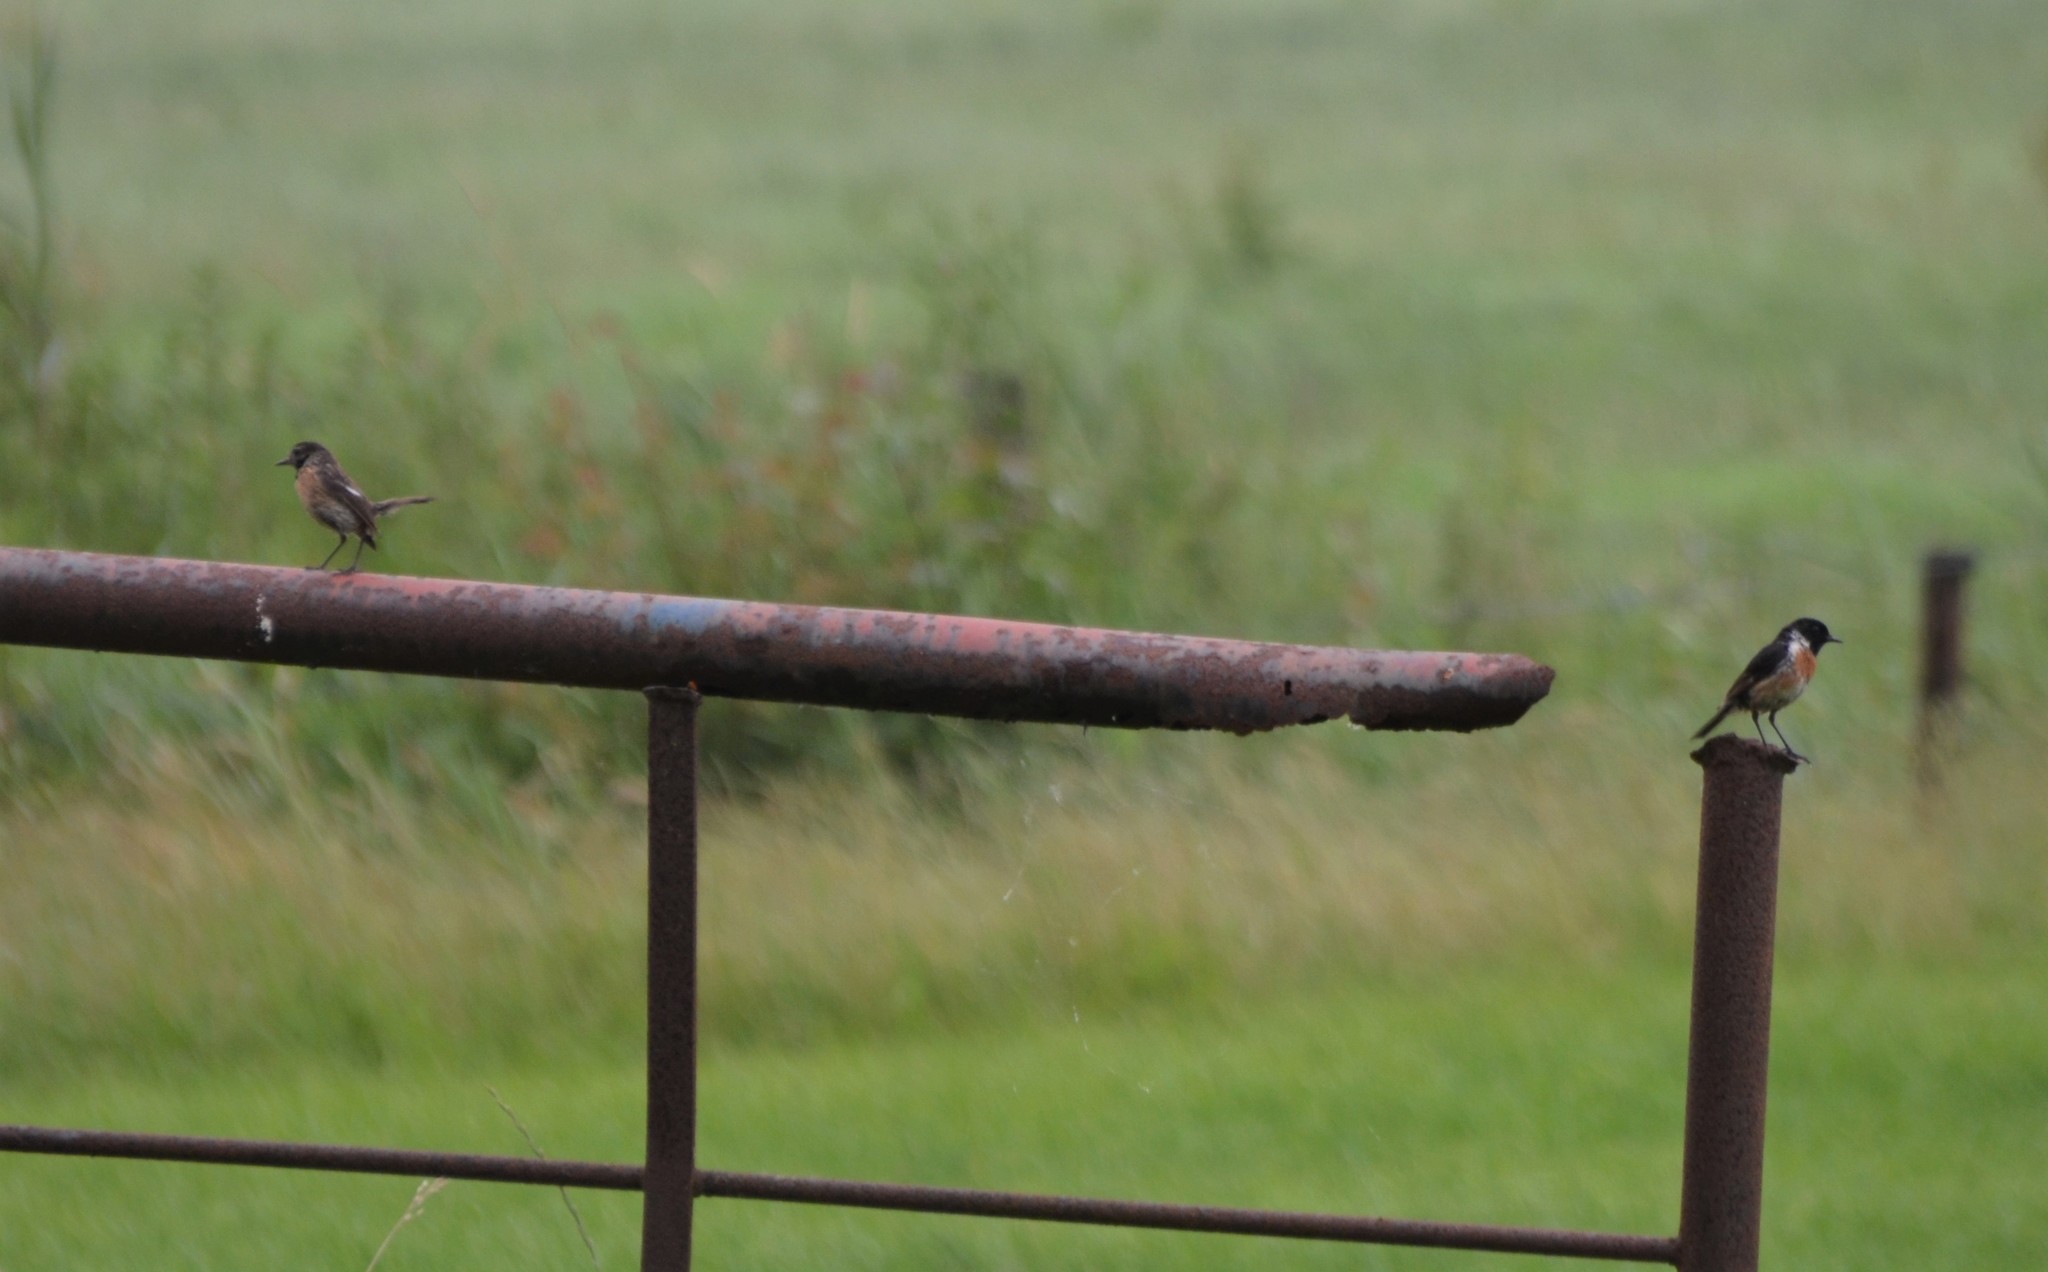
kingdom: Animalia
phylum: Chordata
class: Aves
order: Passeriformes
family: Muscicapidae
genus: Saxicola
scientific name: Saxicola rubicola
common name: European stonechat
